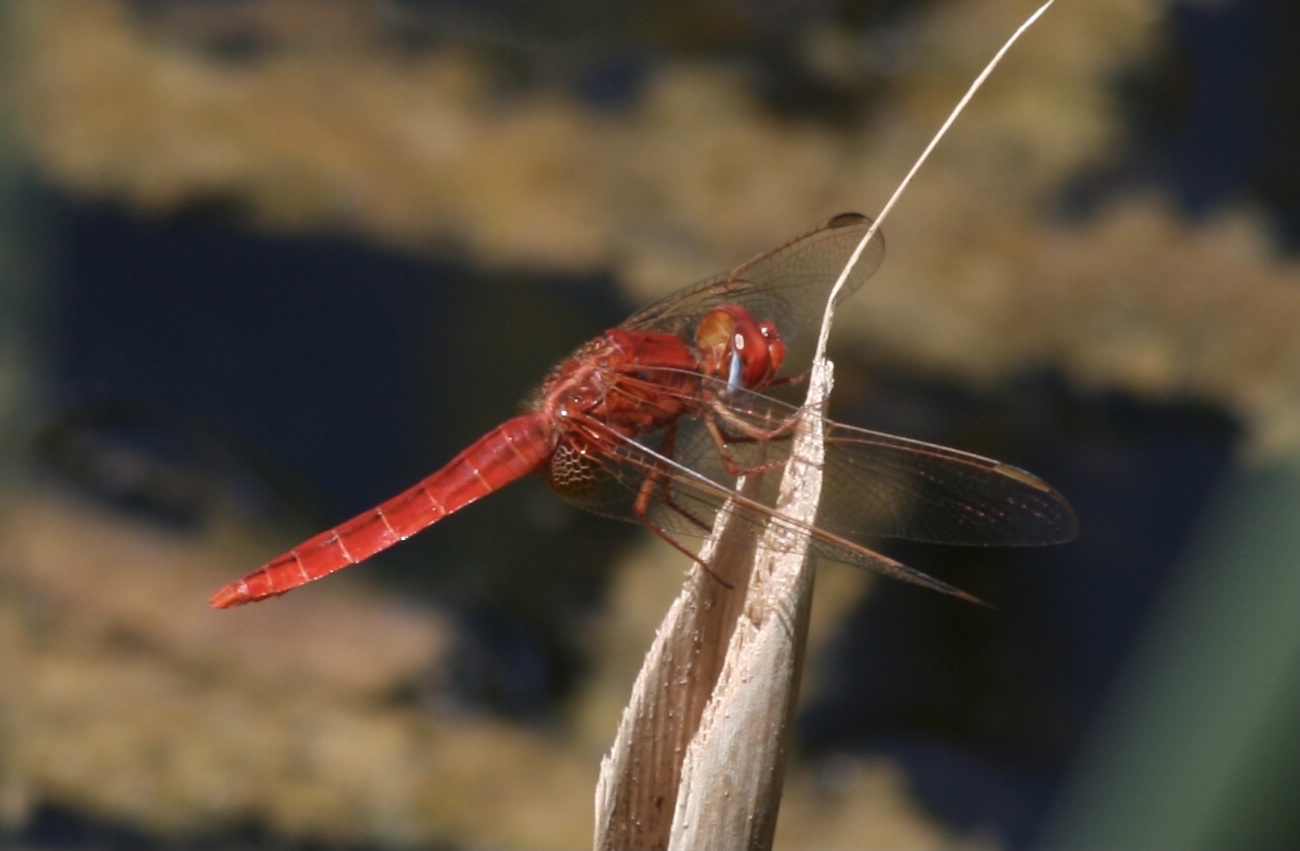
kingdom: Animalia
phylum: Arthropoda
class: Insecta
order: Odonata
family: Libellulidae
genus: Crocothemis
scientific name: Crocothemis erythraea
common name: Scarlet dragonfly
